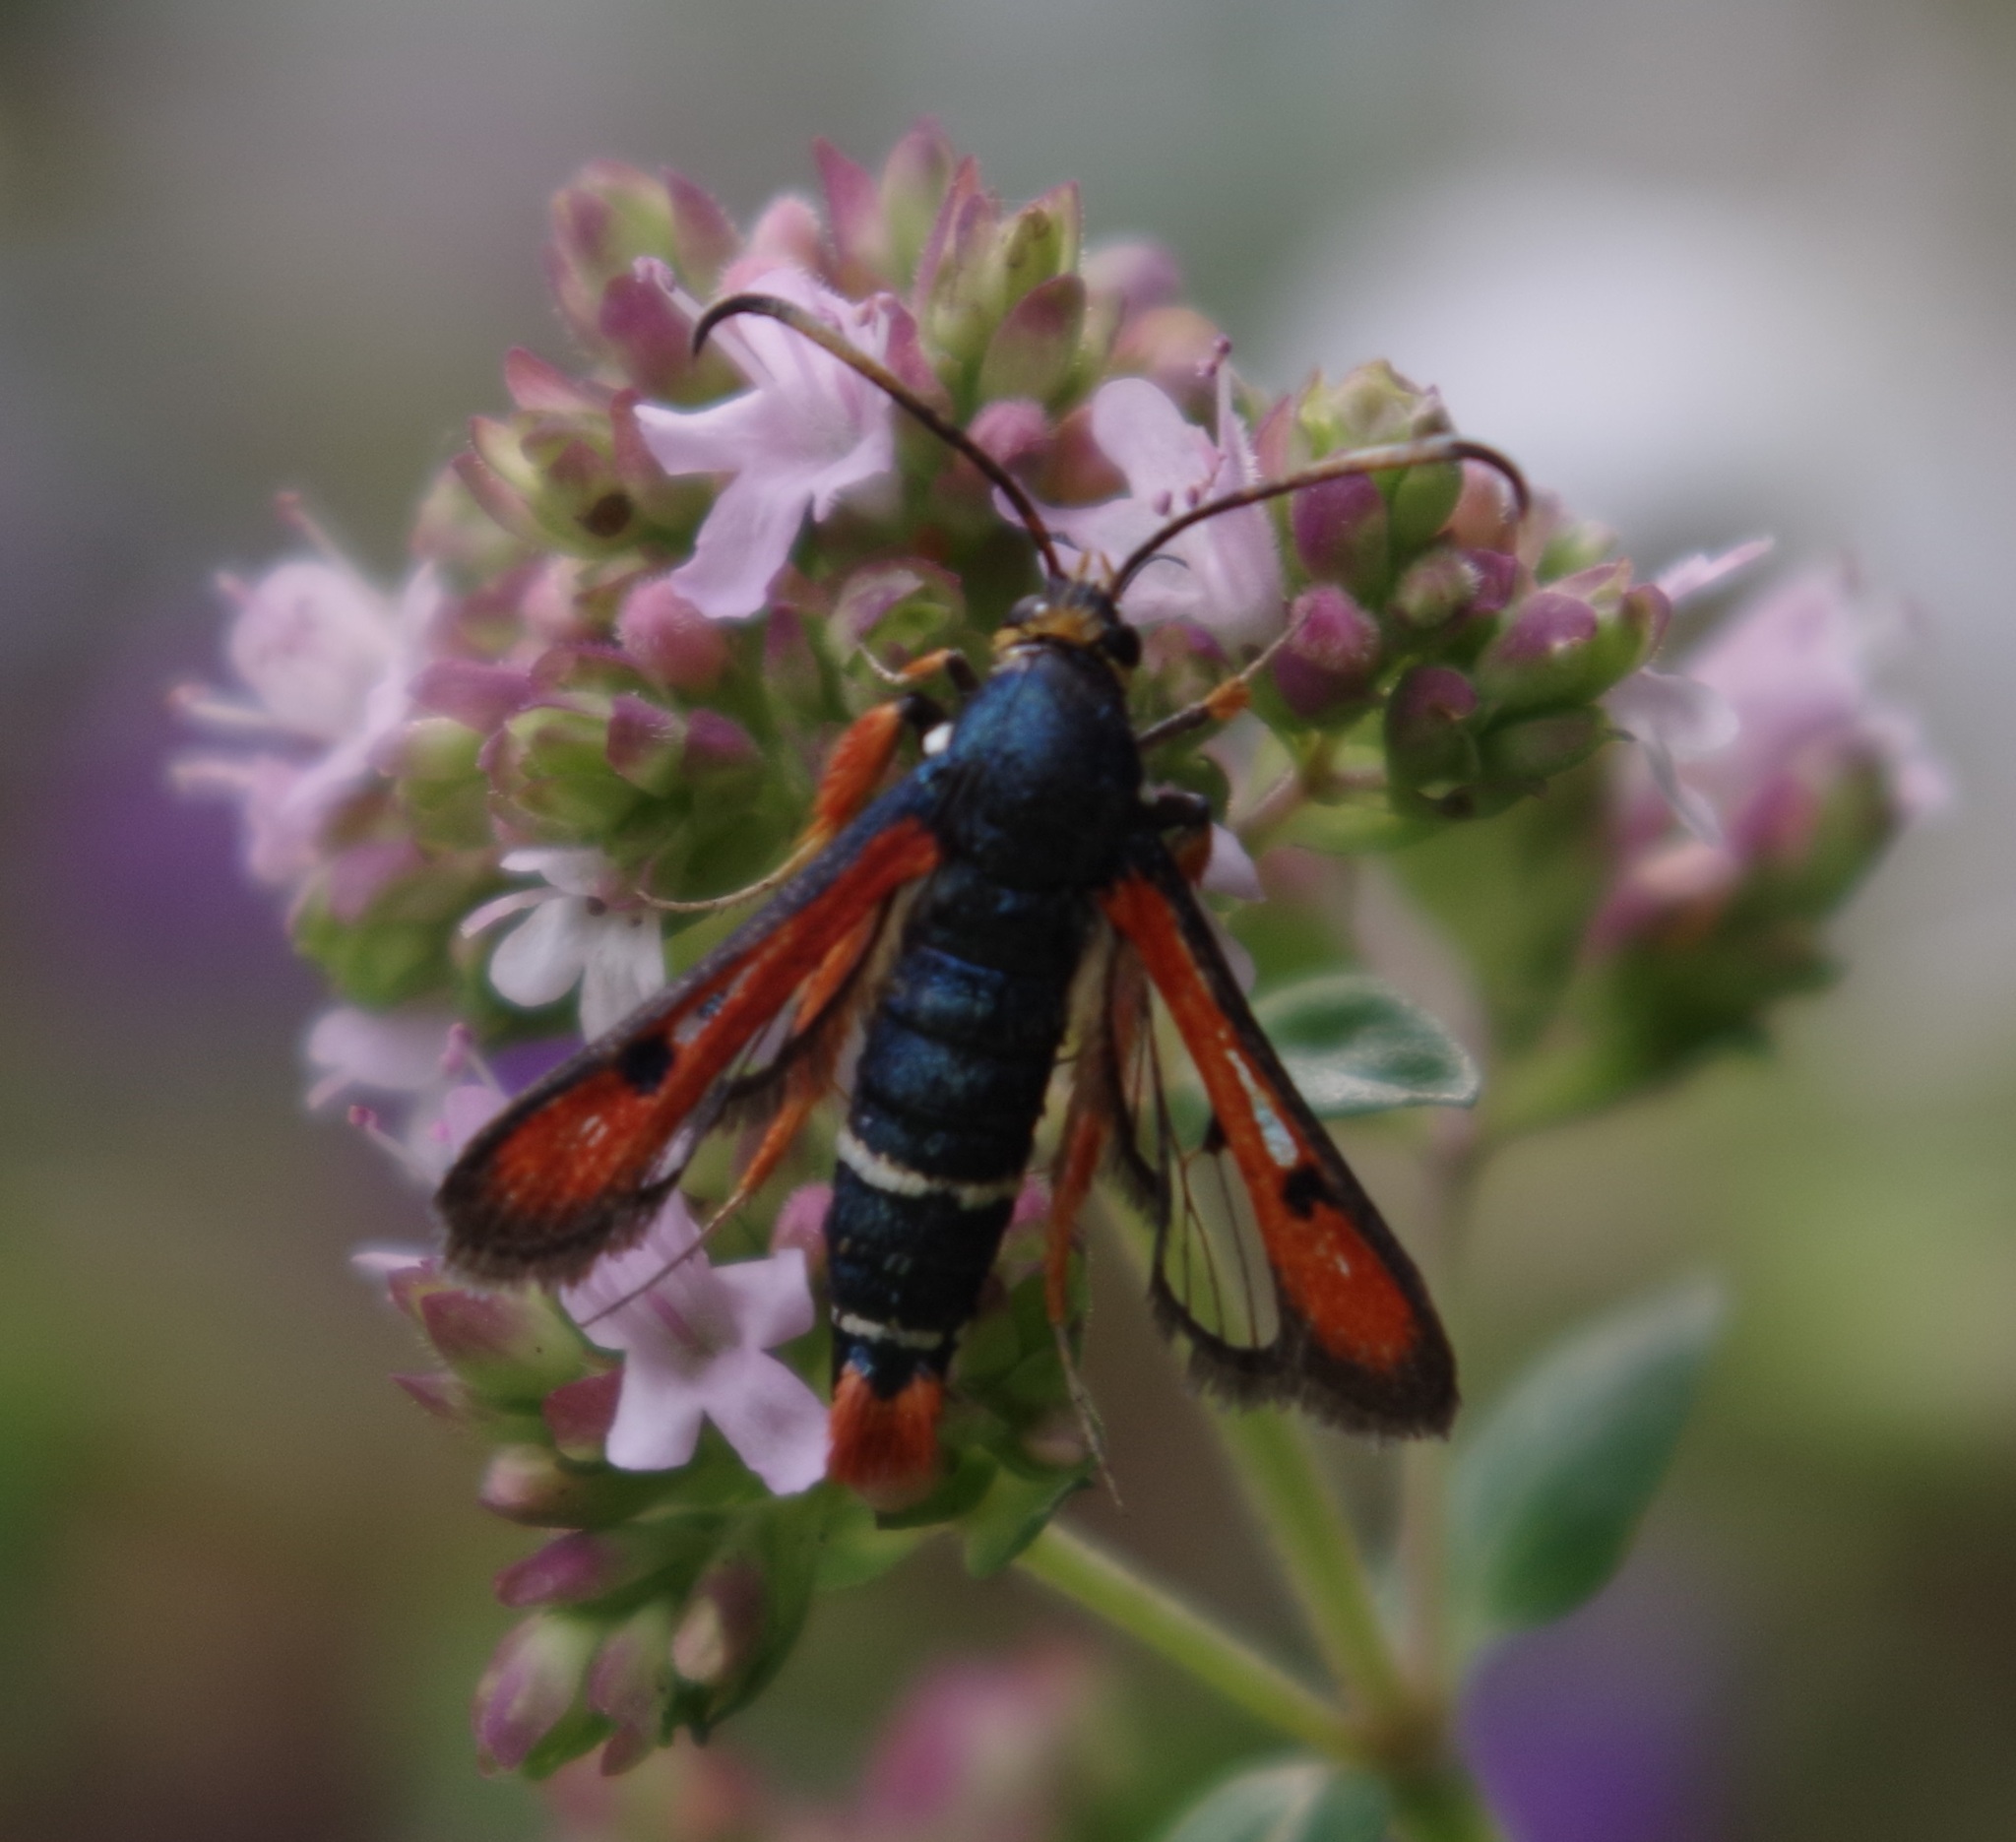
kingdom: Animalia
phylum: Arthropoda
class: Insecta
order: Lepidoptera
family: Sesiidae
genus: Pyropteron
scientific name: Pyropteron chrysidiforme
